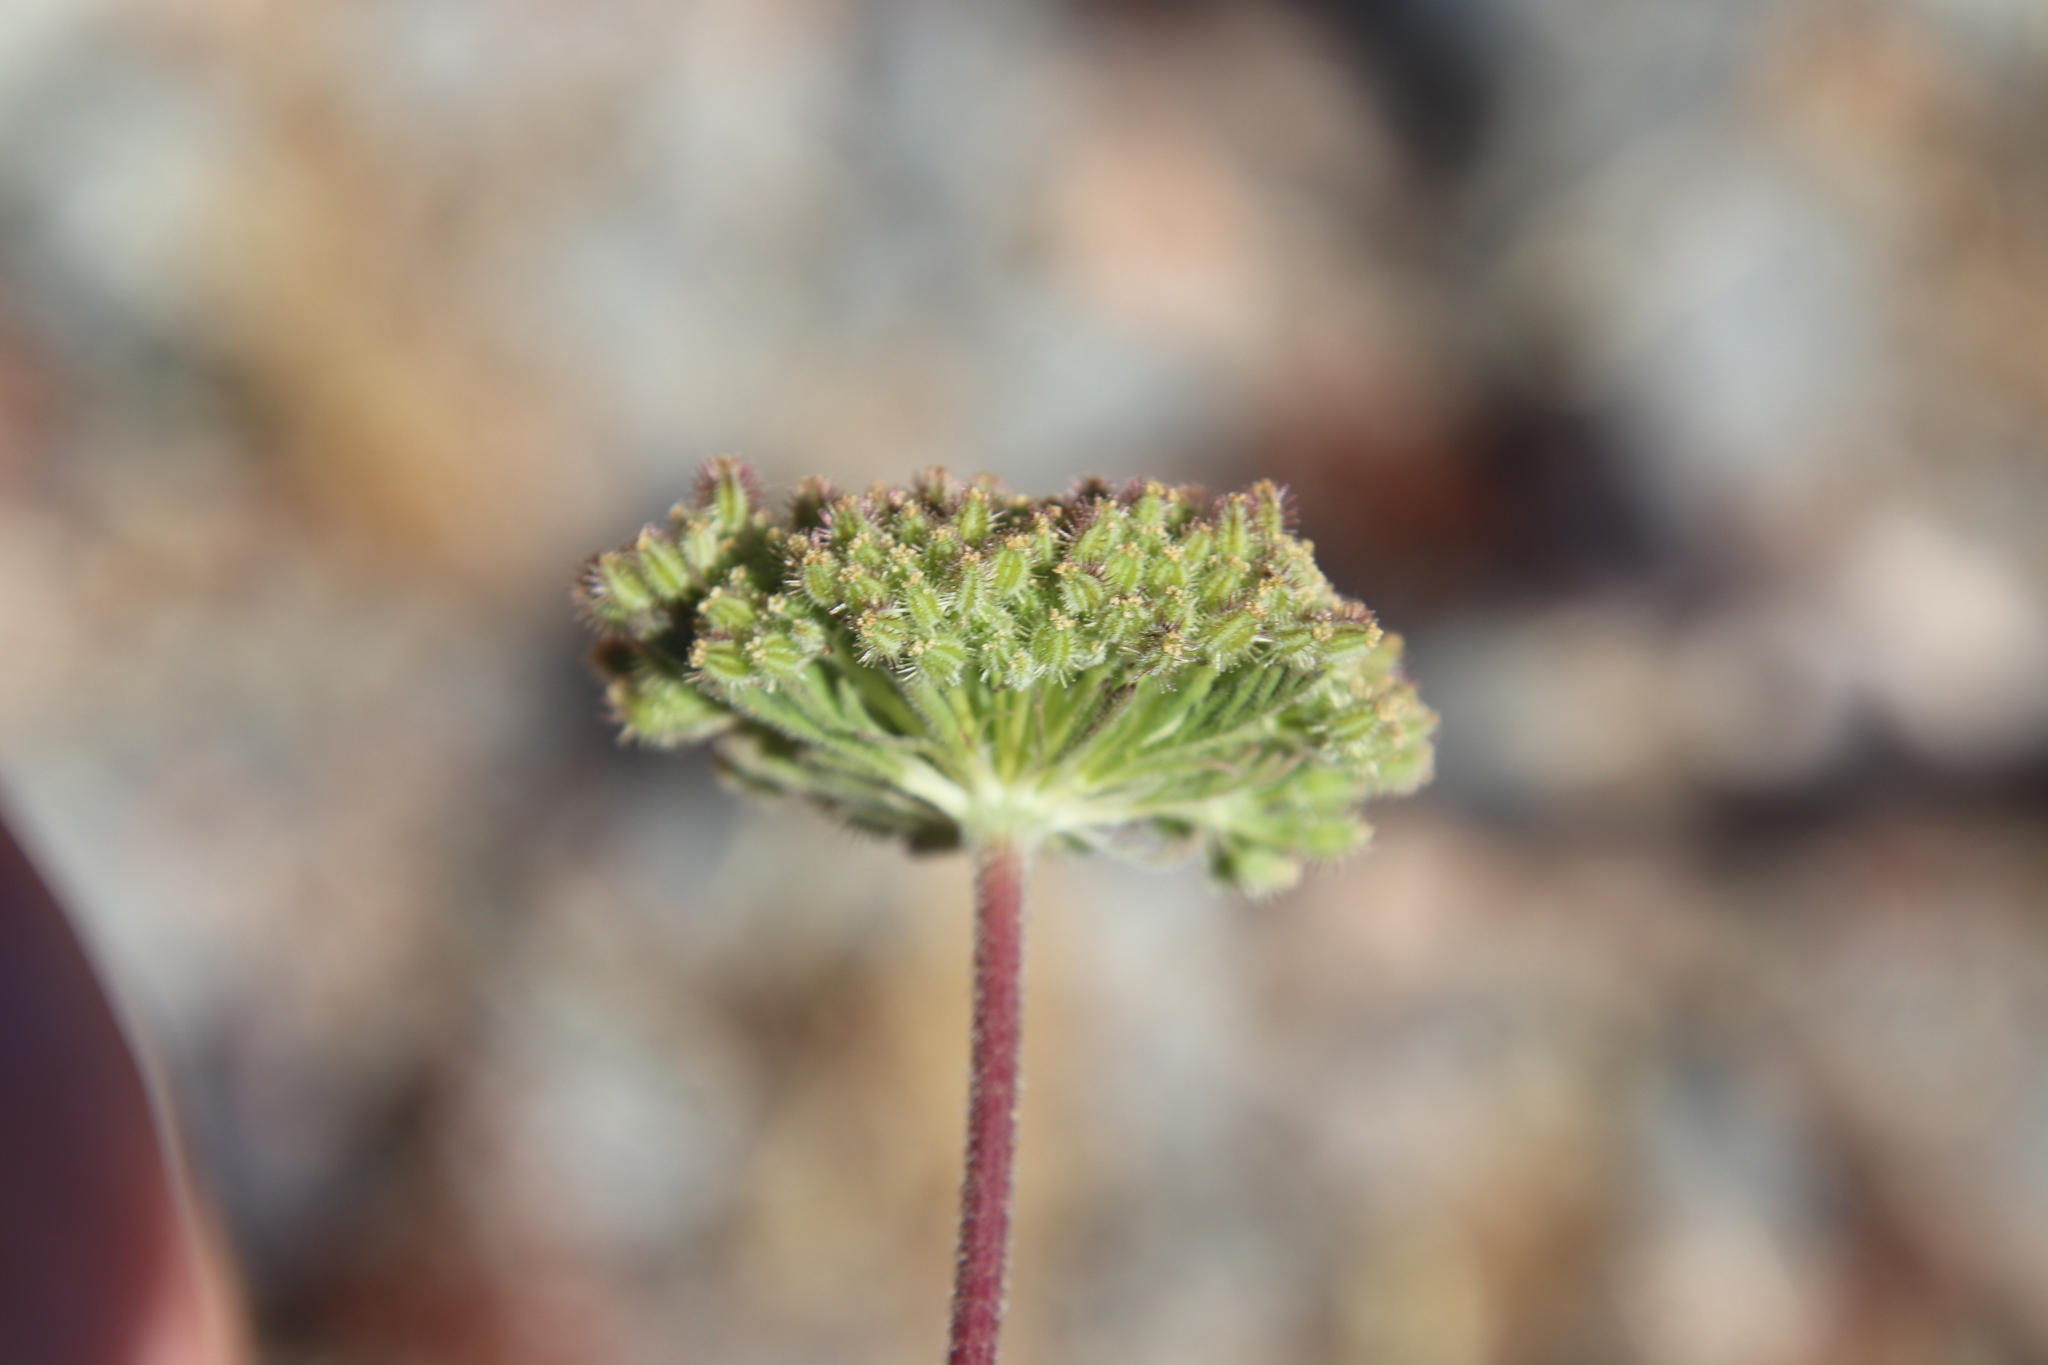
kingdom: Plantae
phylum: Tracheophyta
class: Magnoliopsida
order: Apiales
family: Apiaceae
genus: Daucus
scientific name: Daucus pusillus
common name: Southwest wild carrot
